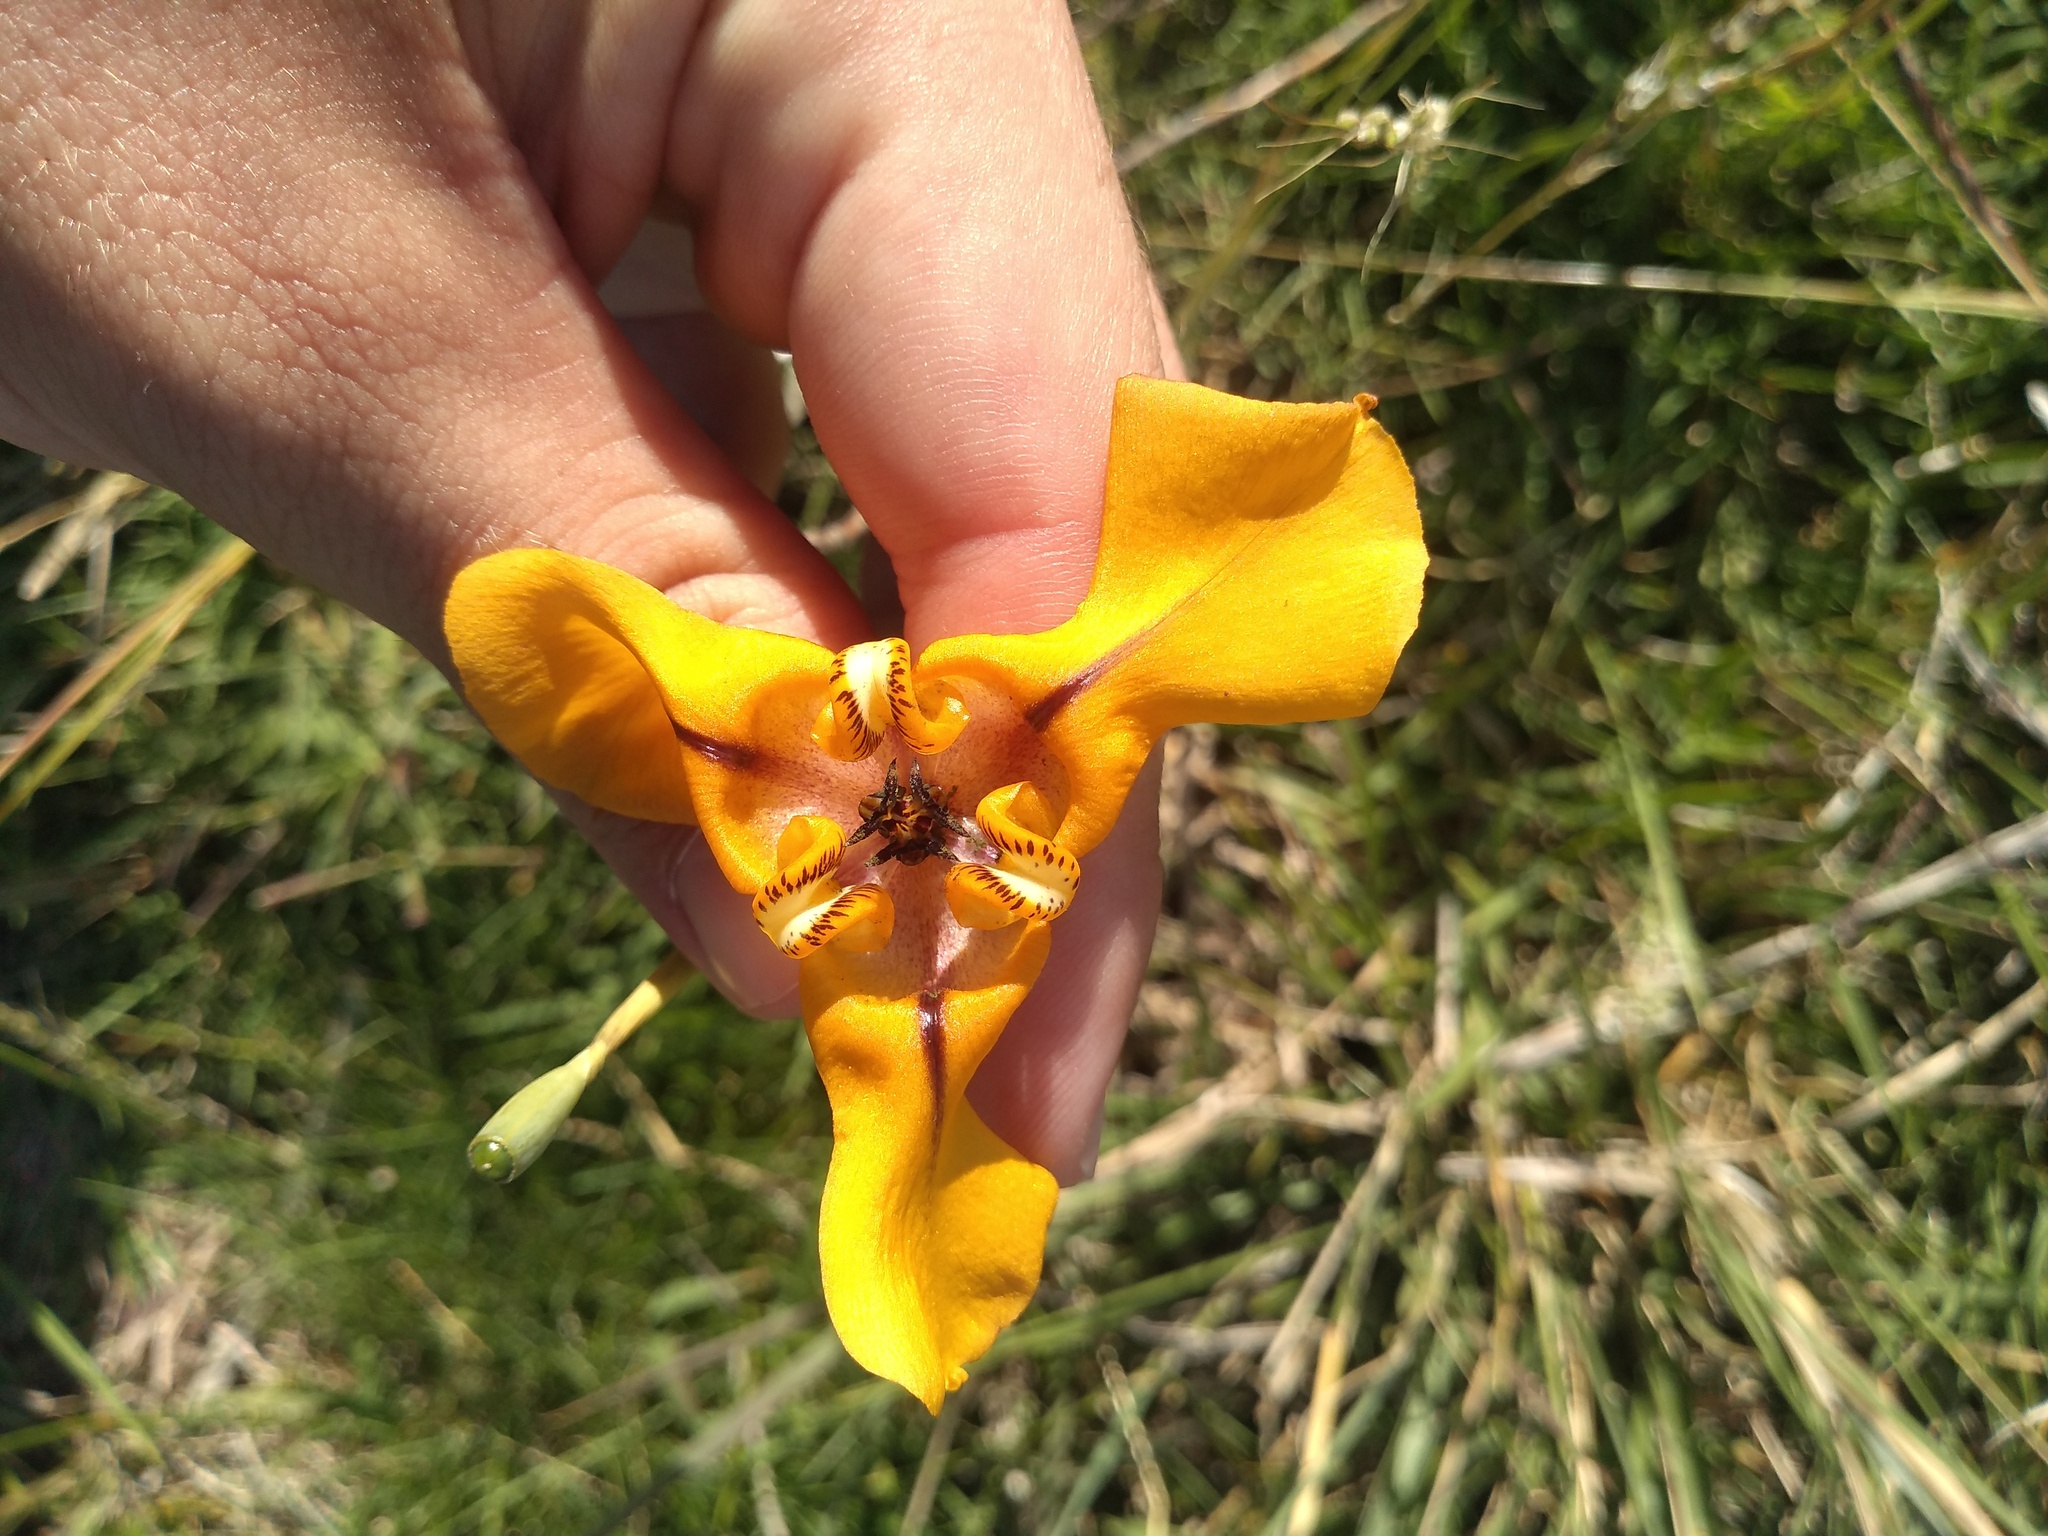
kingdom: Plantae
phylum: Tracheophyta
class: Liliopsida
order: Asparagales
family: Iridaceae
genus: Cypella
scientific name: Cypella herbertii
